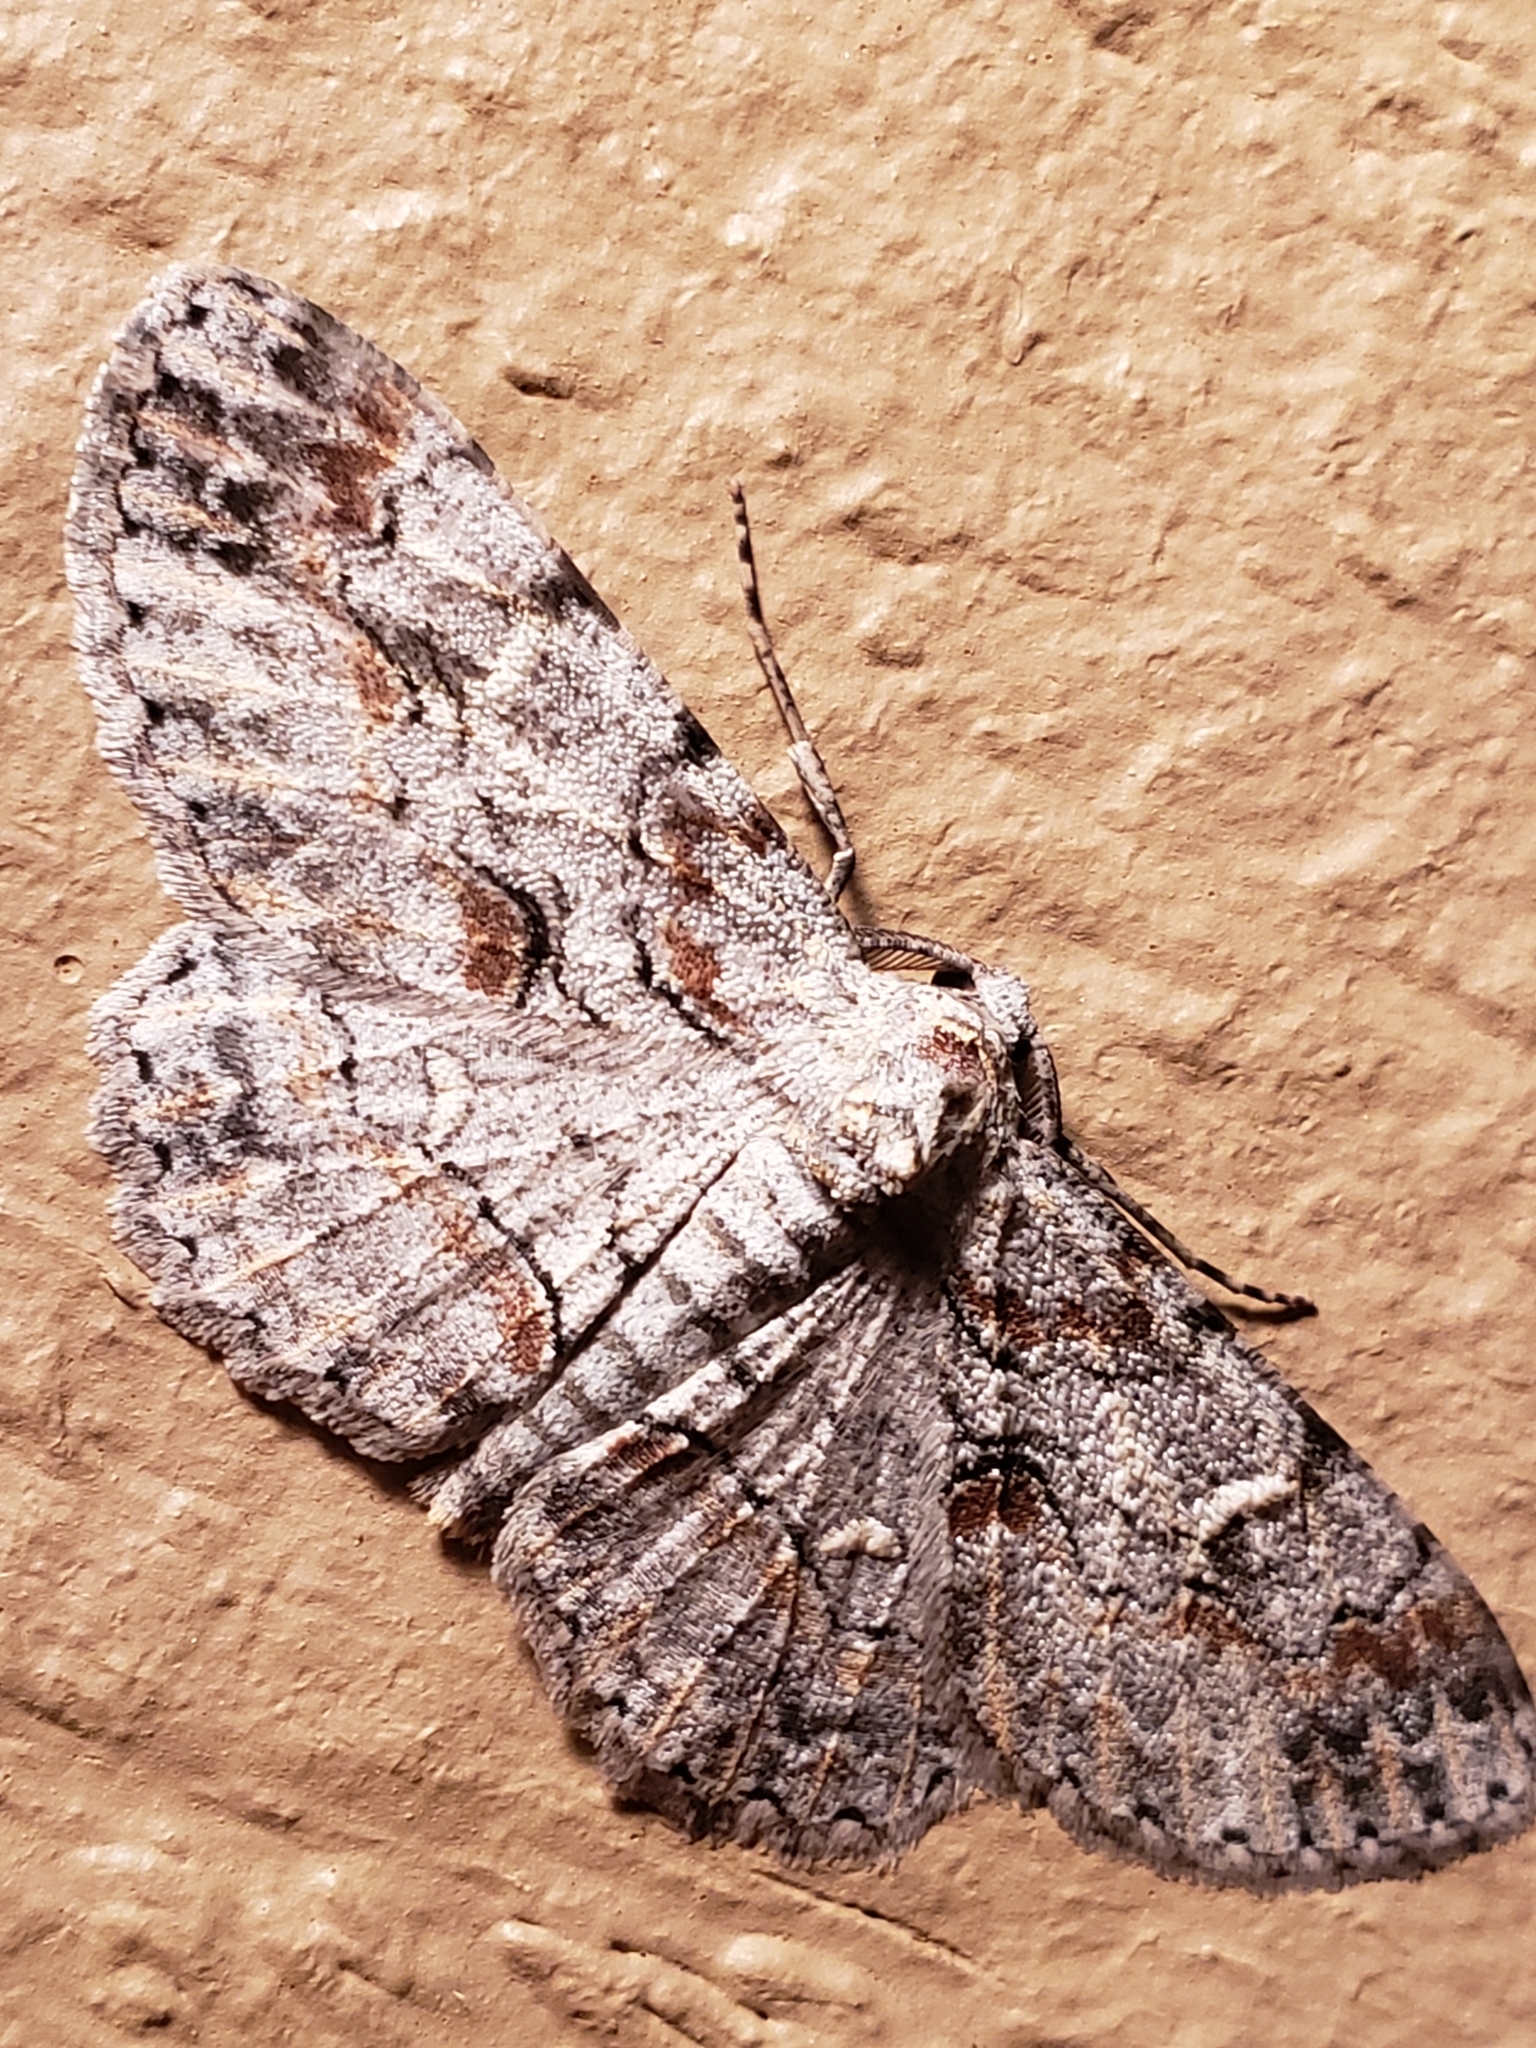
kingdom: Animalia
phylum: Arthropoda
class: Insecta
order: Lepidoptera
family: Geometridae
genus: Iridopsis
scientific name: Iridopsis defectaria
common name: Brown-shaded gray
